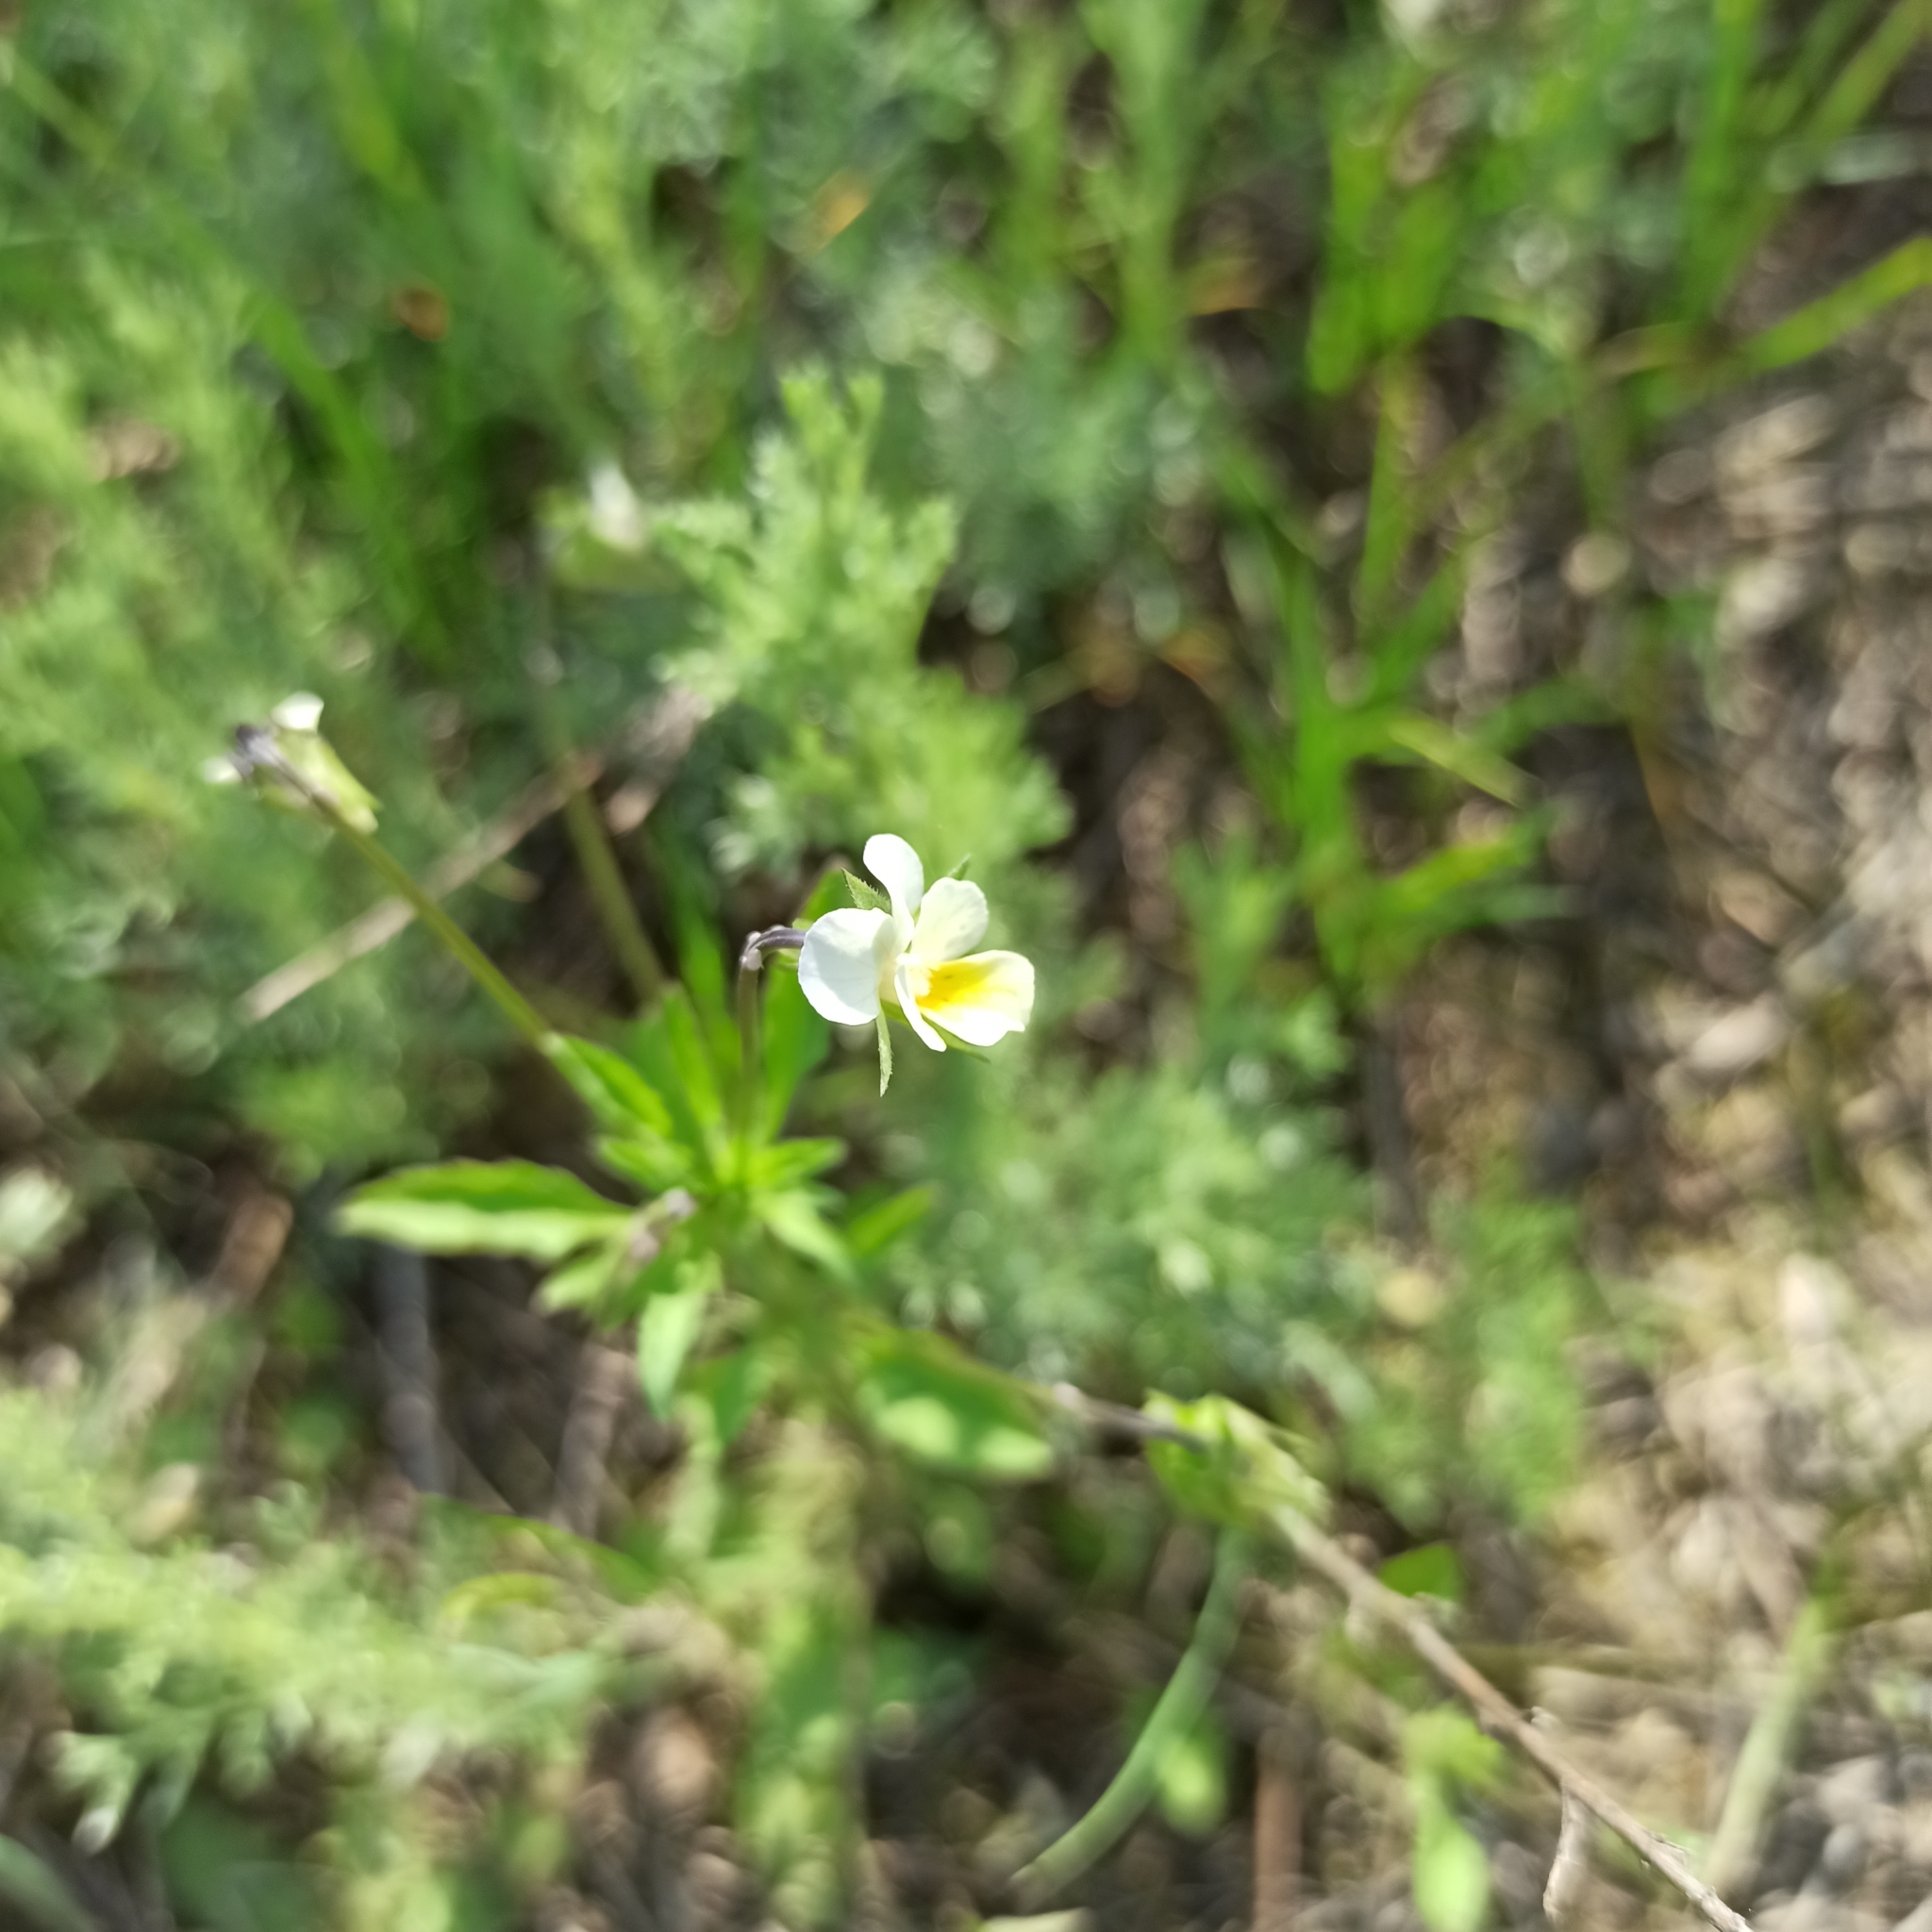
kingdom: Plantae
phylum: Tracheophyta
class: Magnoliopsida
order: Malpighiales
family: Violaceae
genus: Viola
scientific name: Viola arvensis
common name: Field pansy
